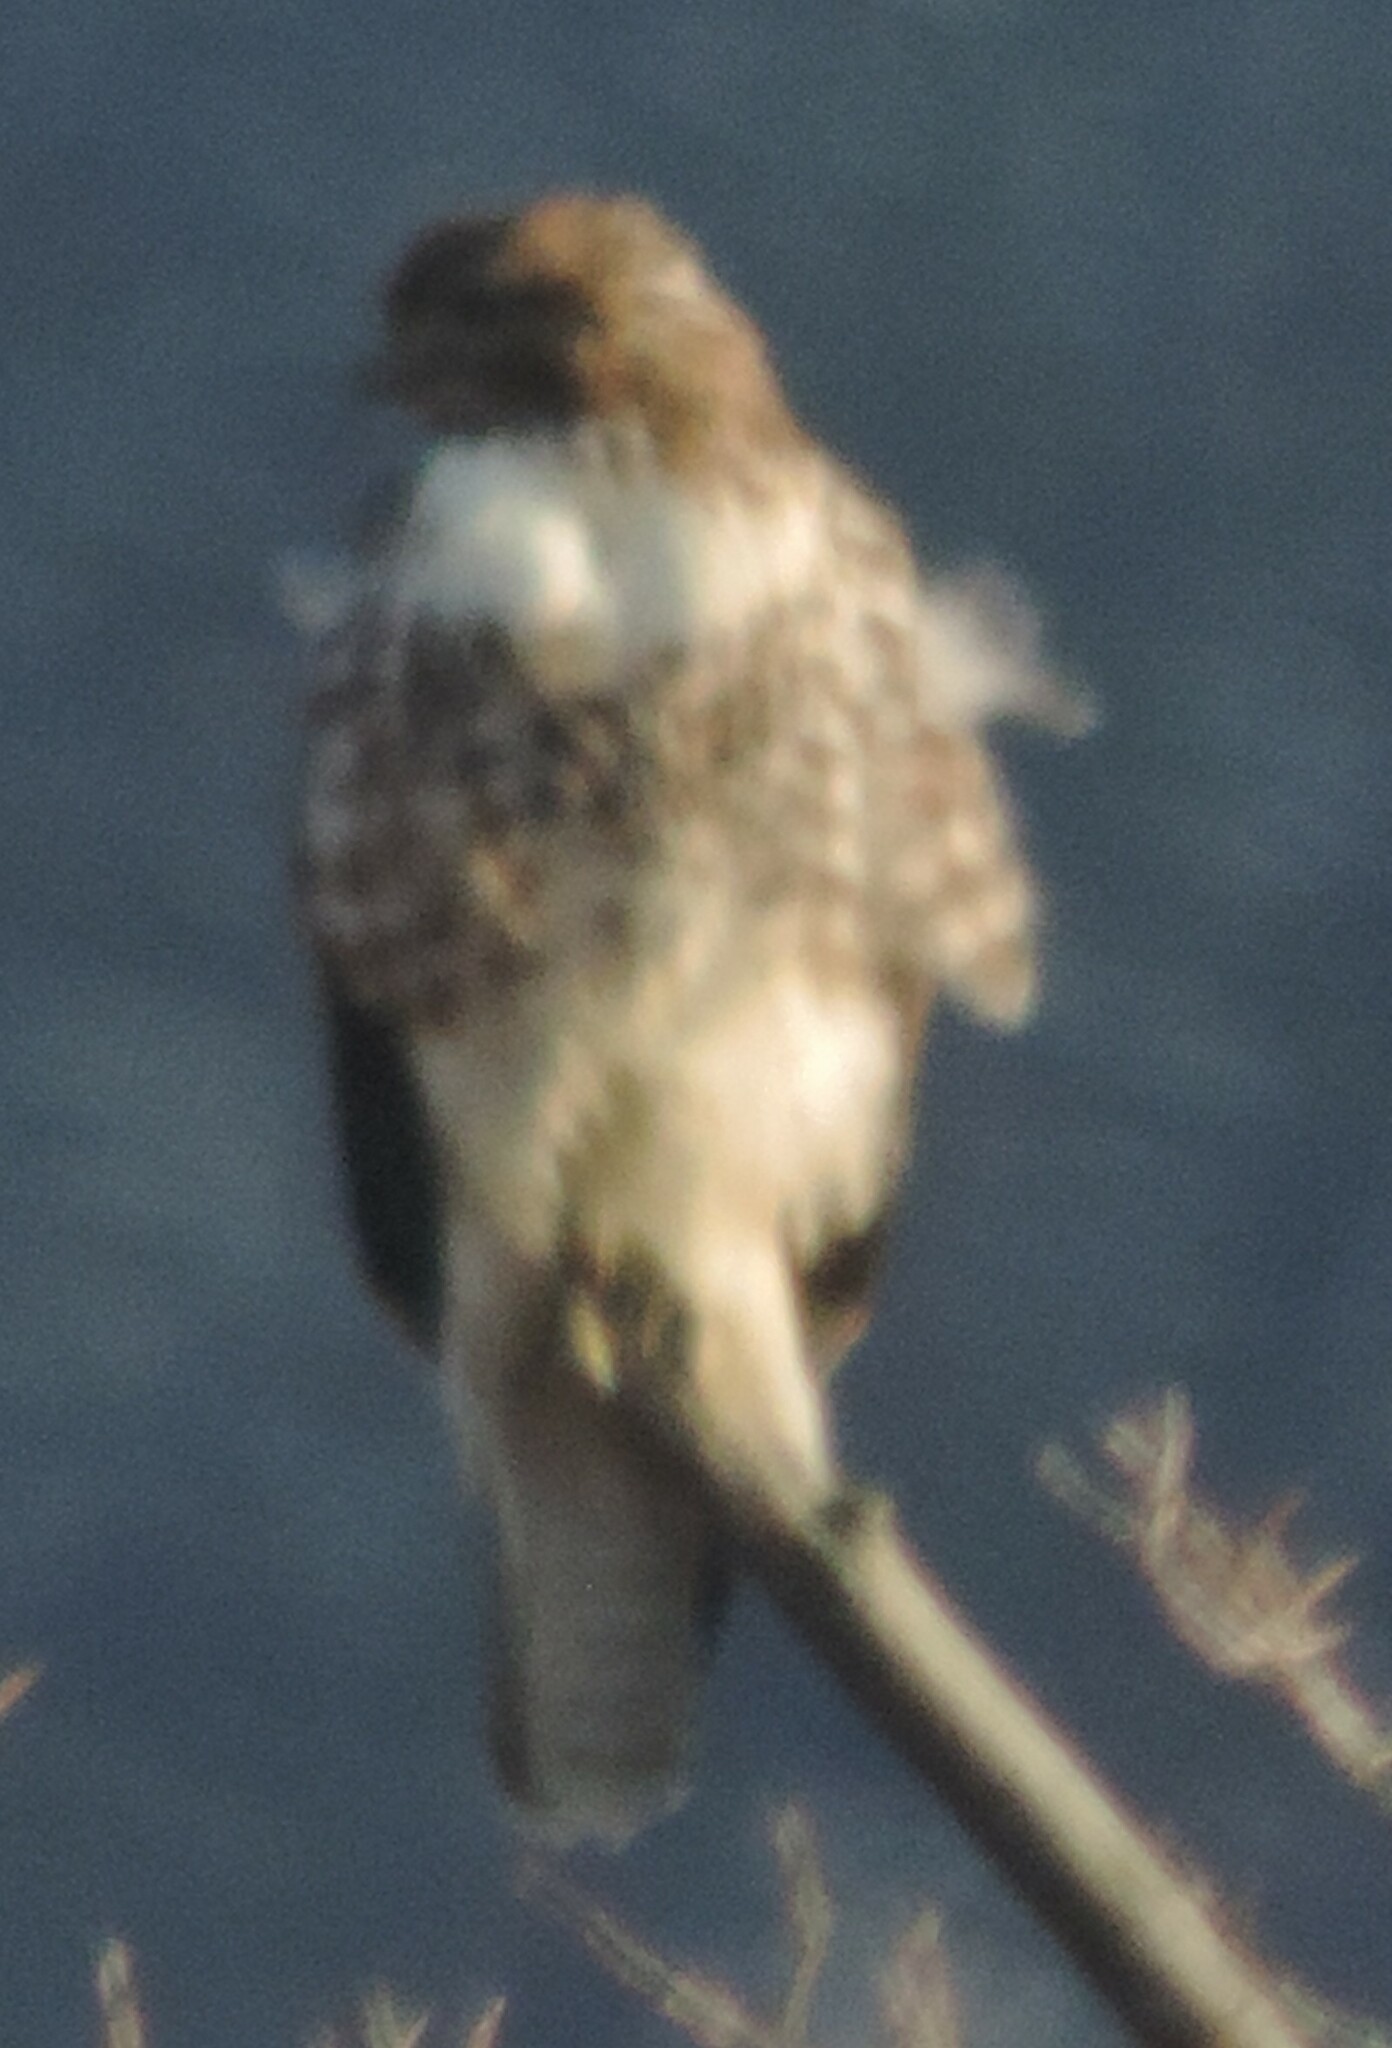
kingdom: Animalia
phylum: Chordata
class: Aves
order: Accipitriformes
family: Accipitridae
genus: Buteo
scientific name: Buteo jamaicensis
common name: Red-tailed hawk
